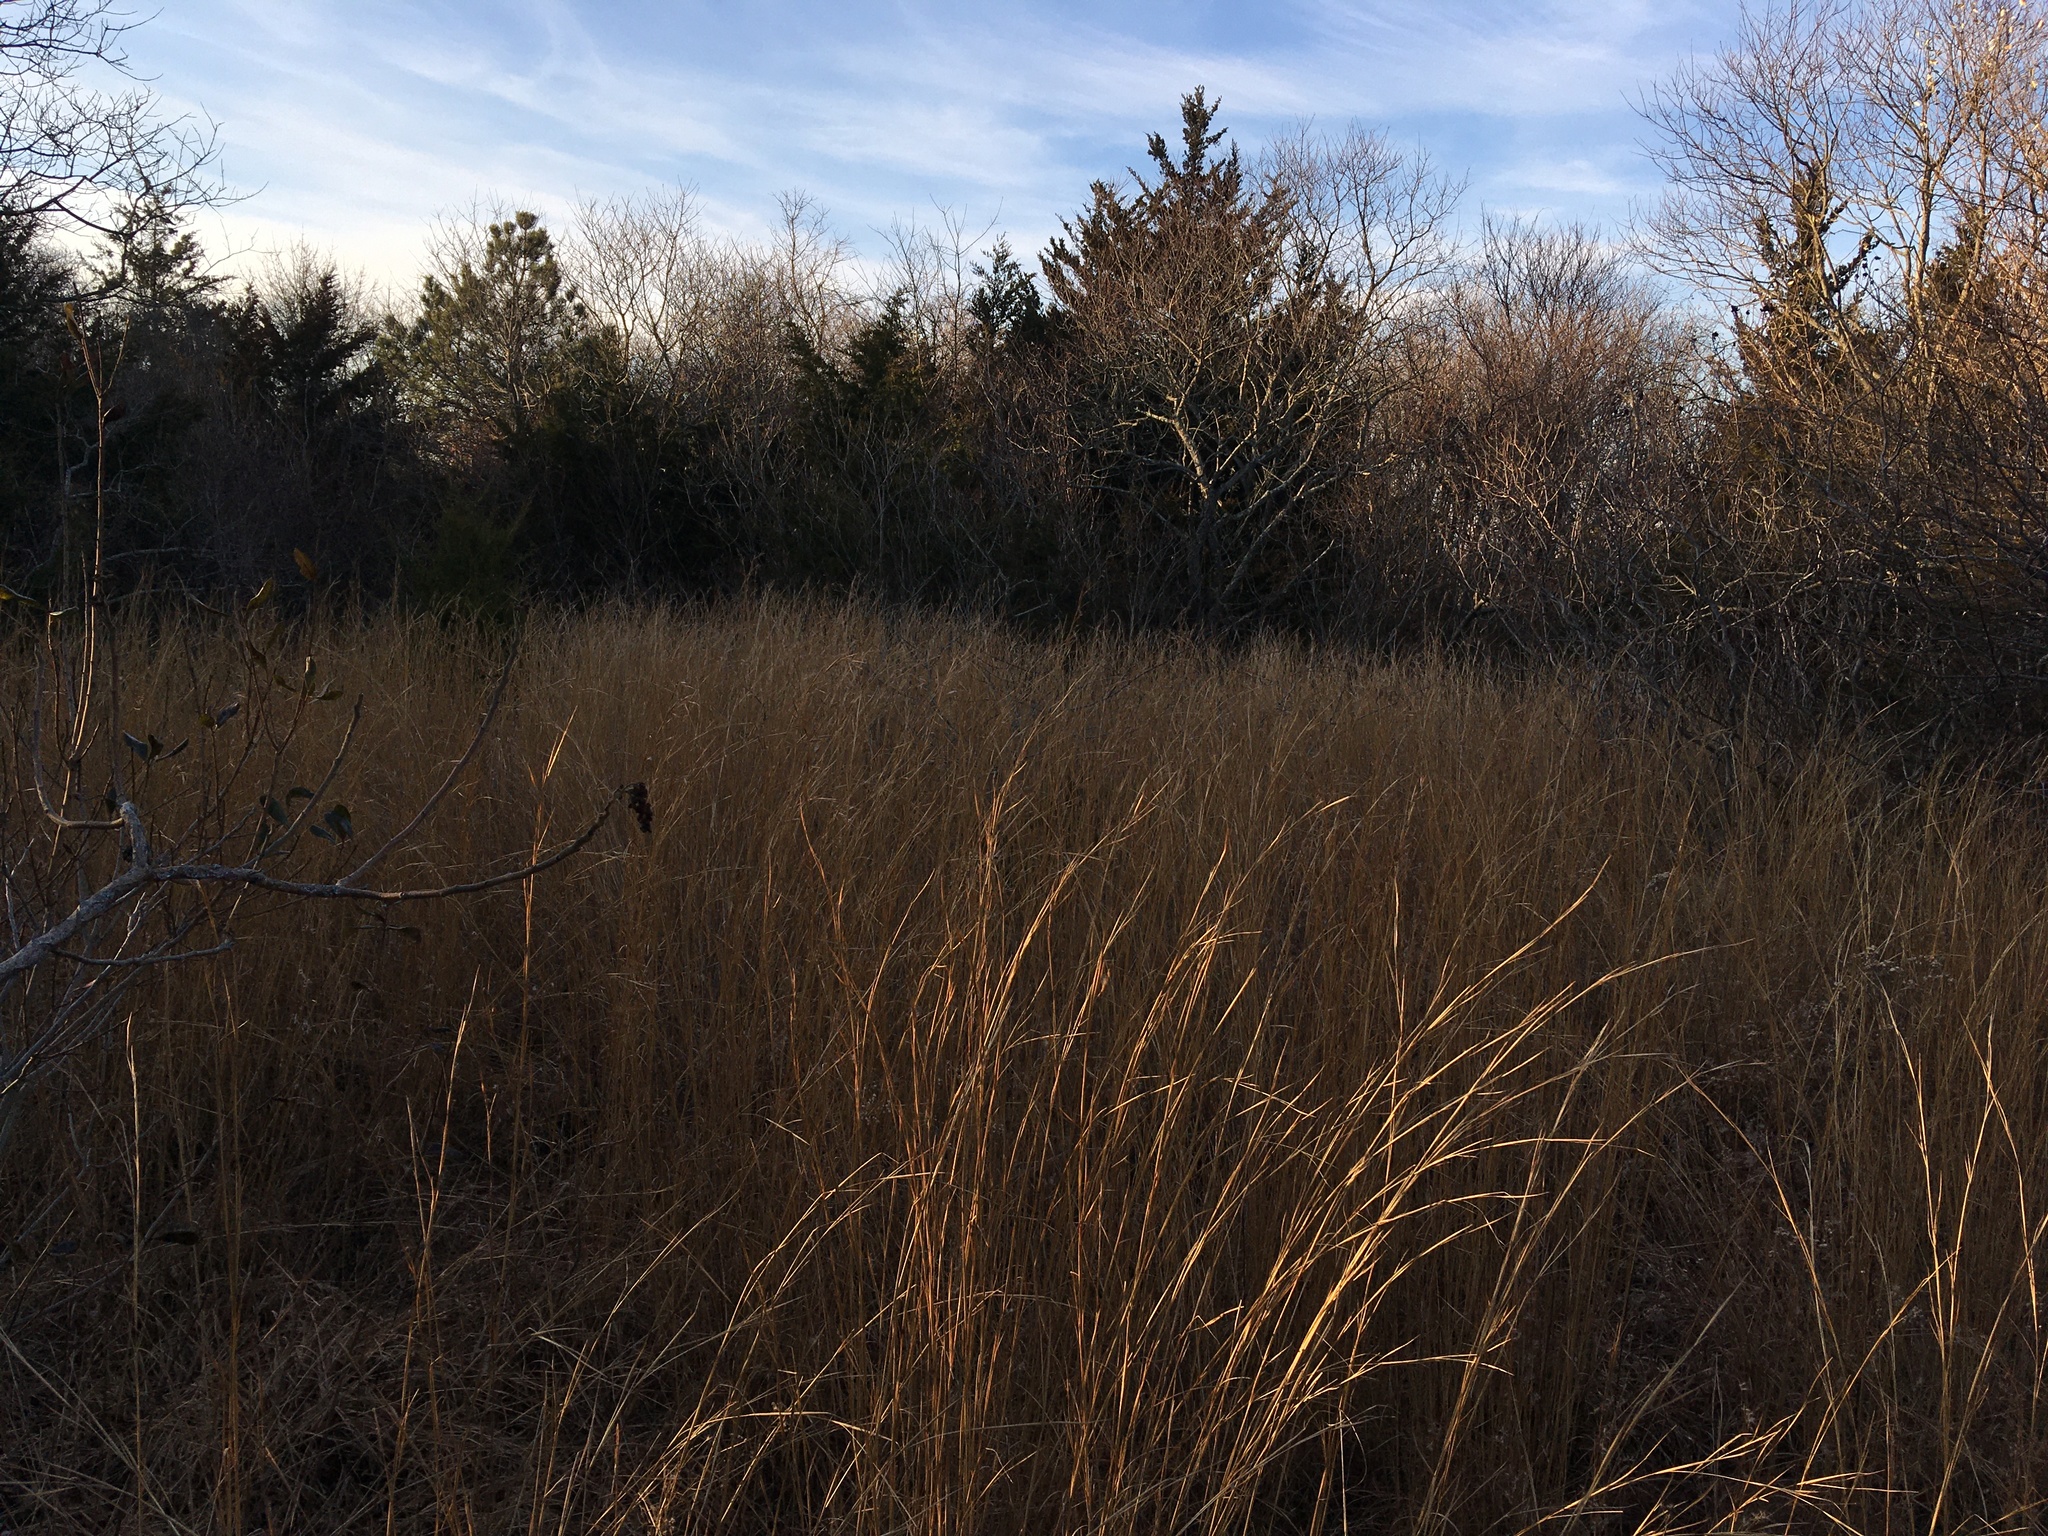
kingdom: Plantae
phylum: Tracheophyta
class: Liliopsida
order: Poales
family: Poaceae
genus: Schizachyrium
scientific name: Schizachyrium scoparium
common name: Little bluestem
